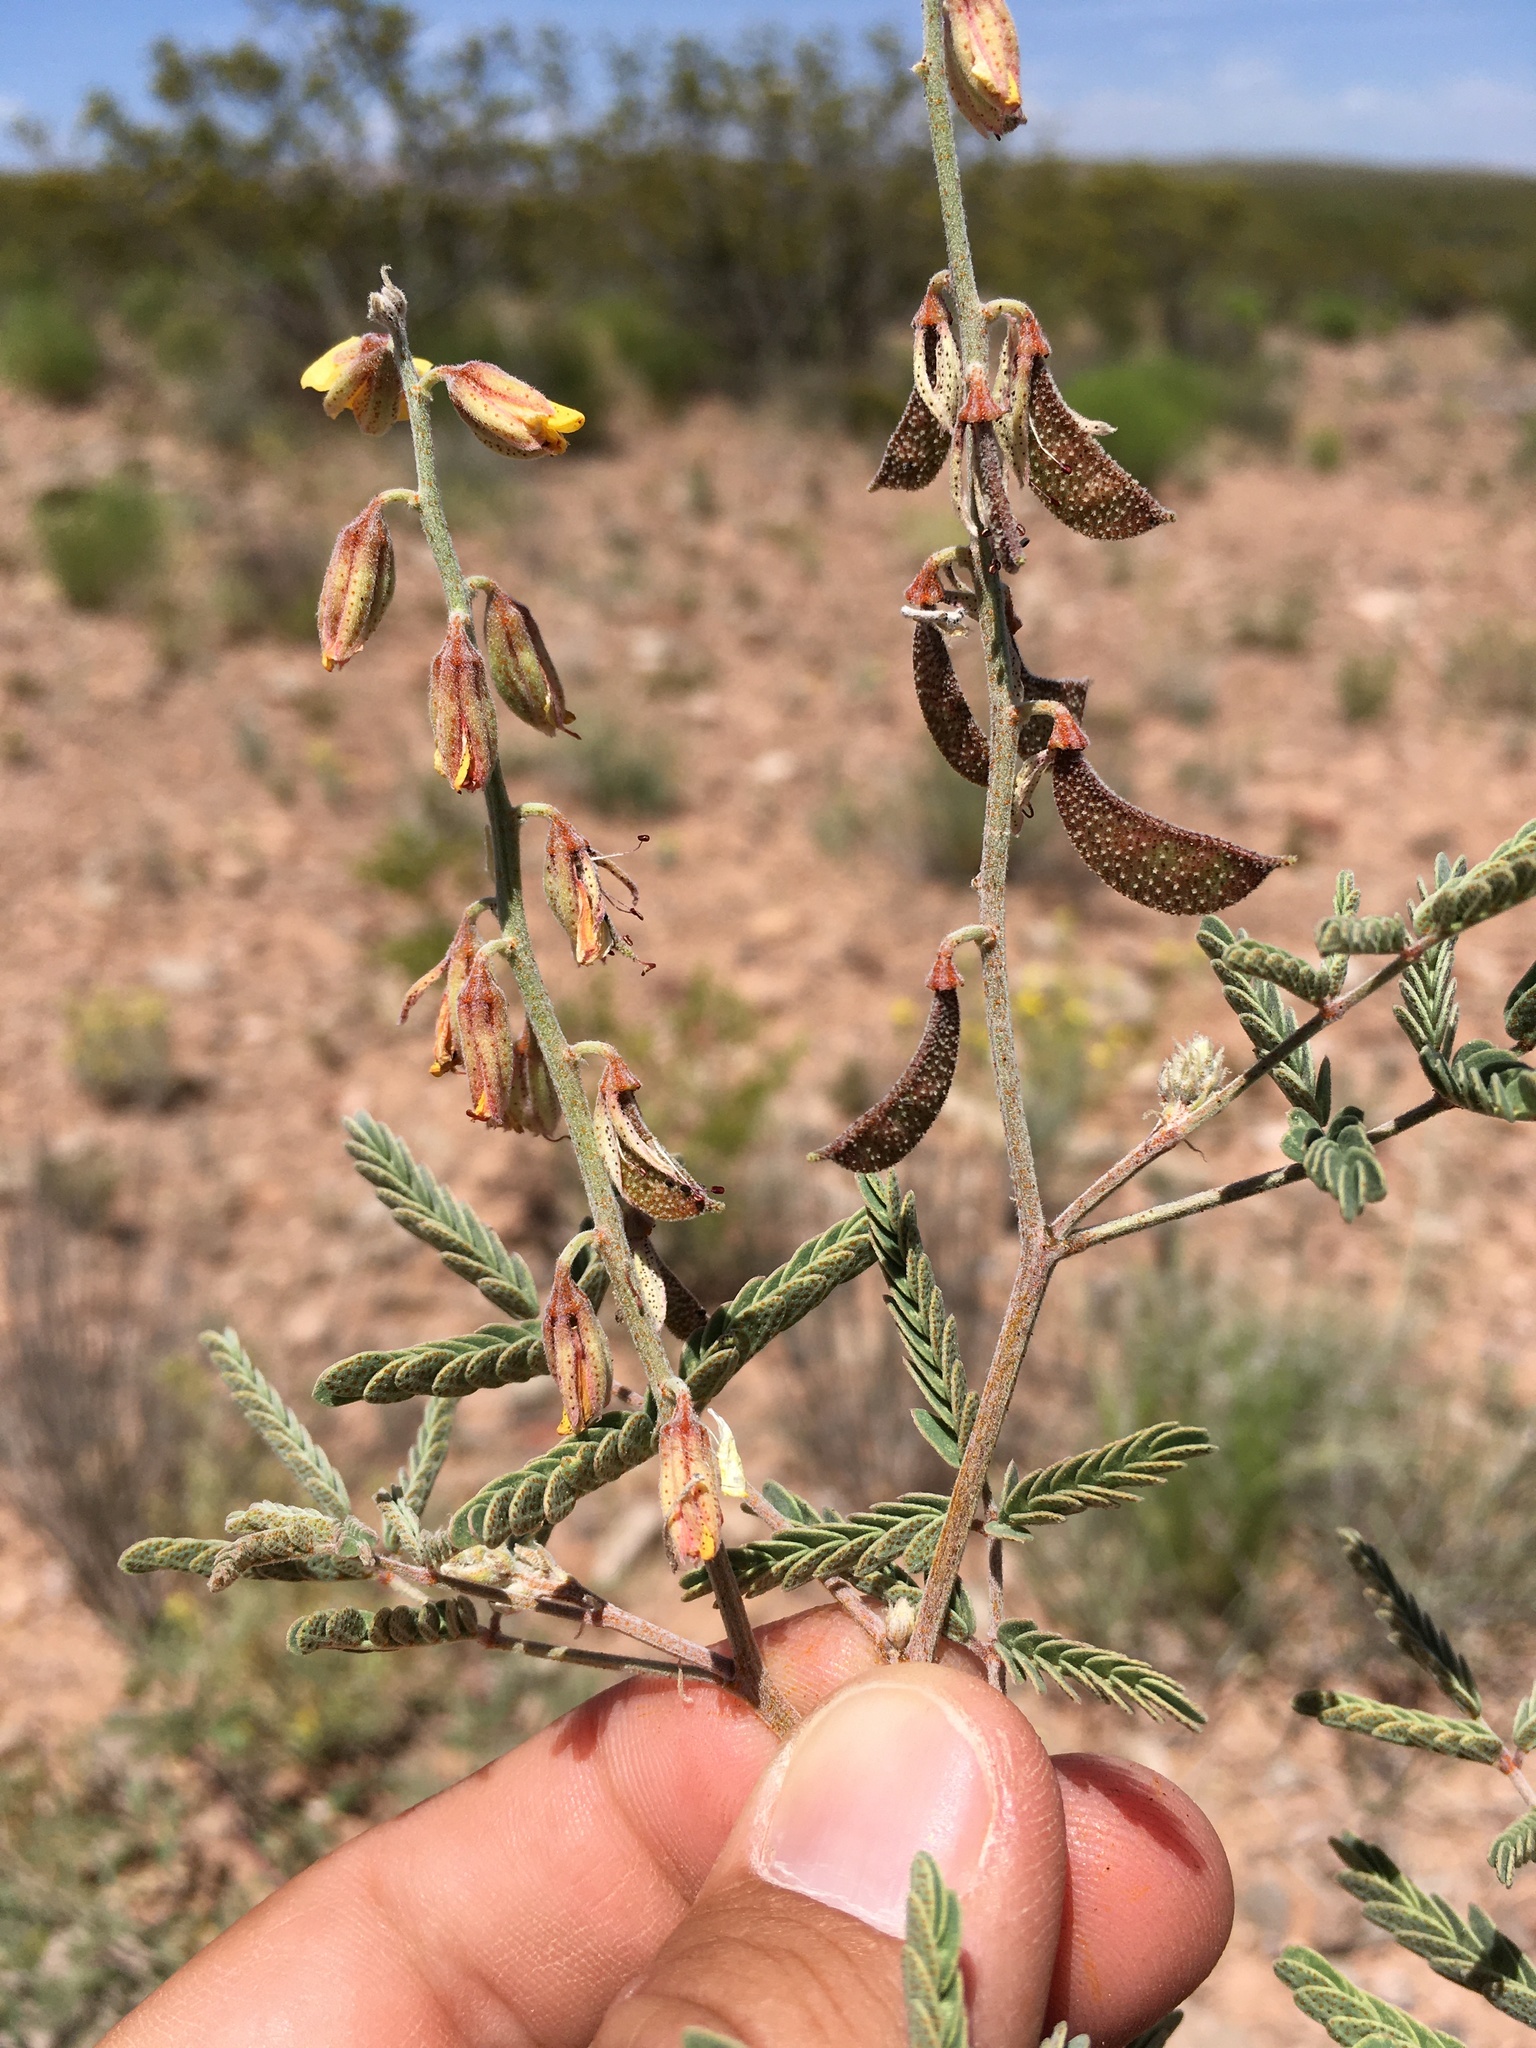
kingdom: Plantae
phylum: Tracheophyta
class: Magnoliopsida
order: Fabales
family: Fabaceae
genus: Pomaria
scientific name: Pomaria jamesii
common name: James' caesalpinia
